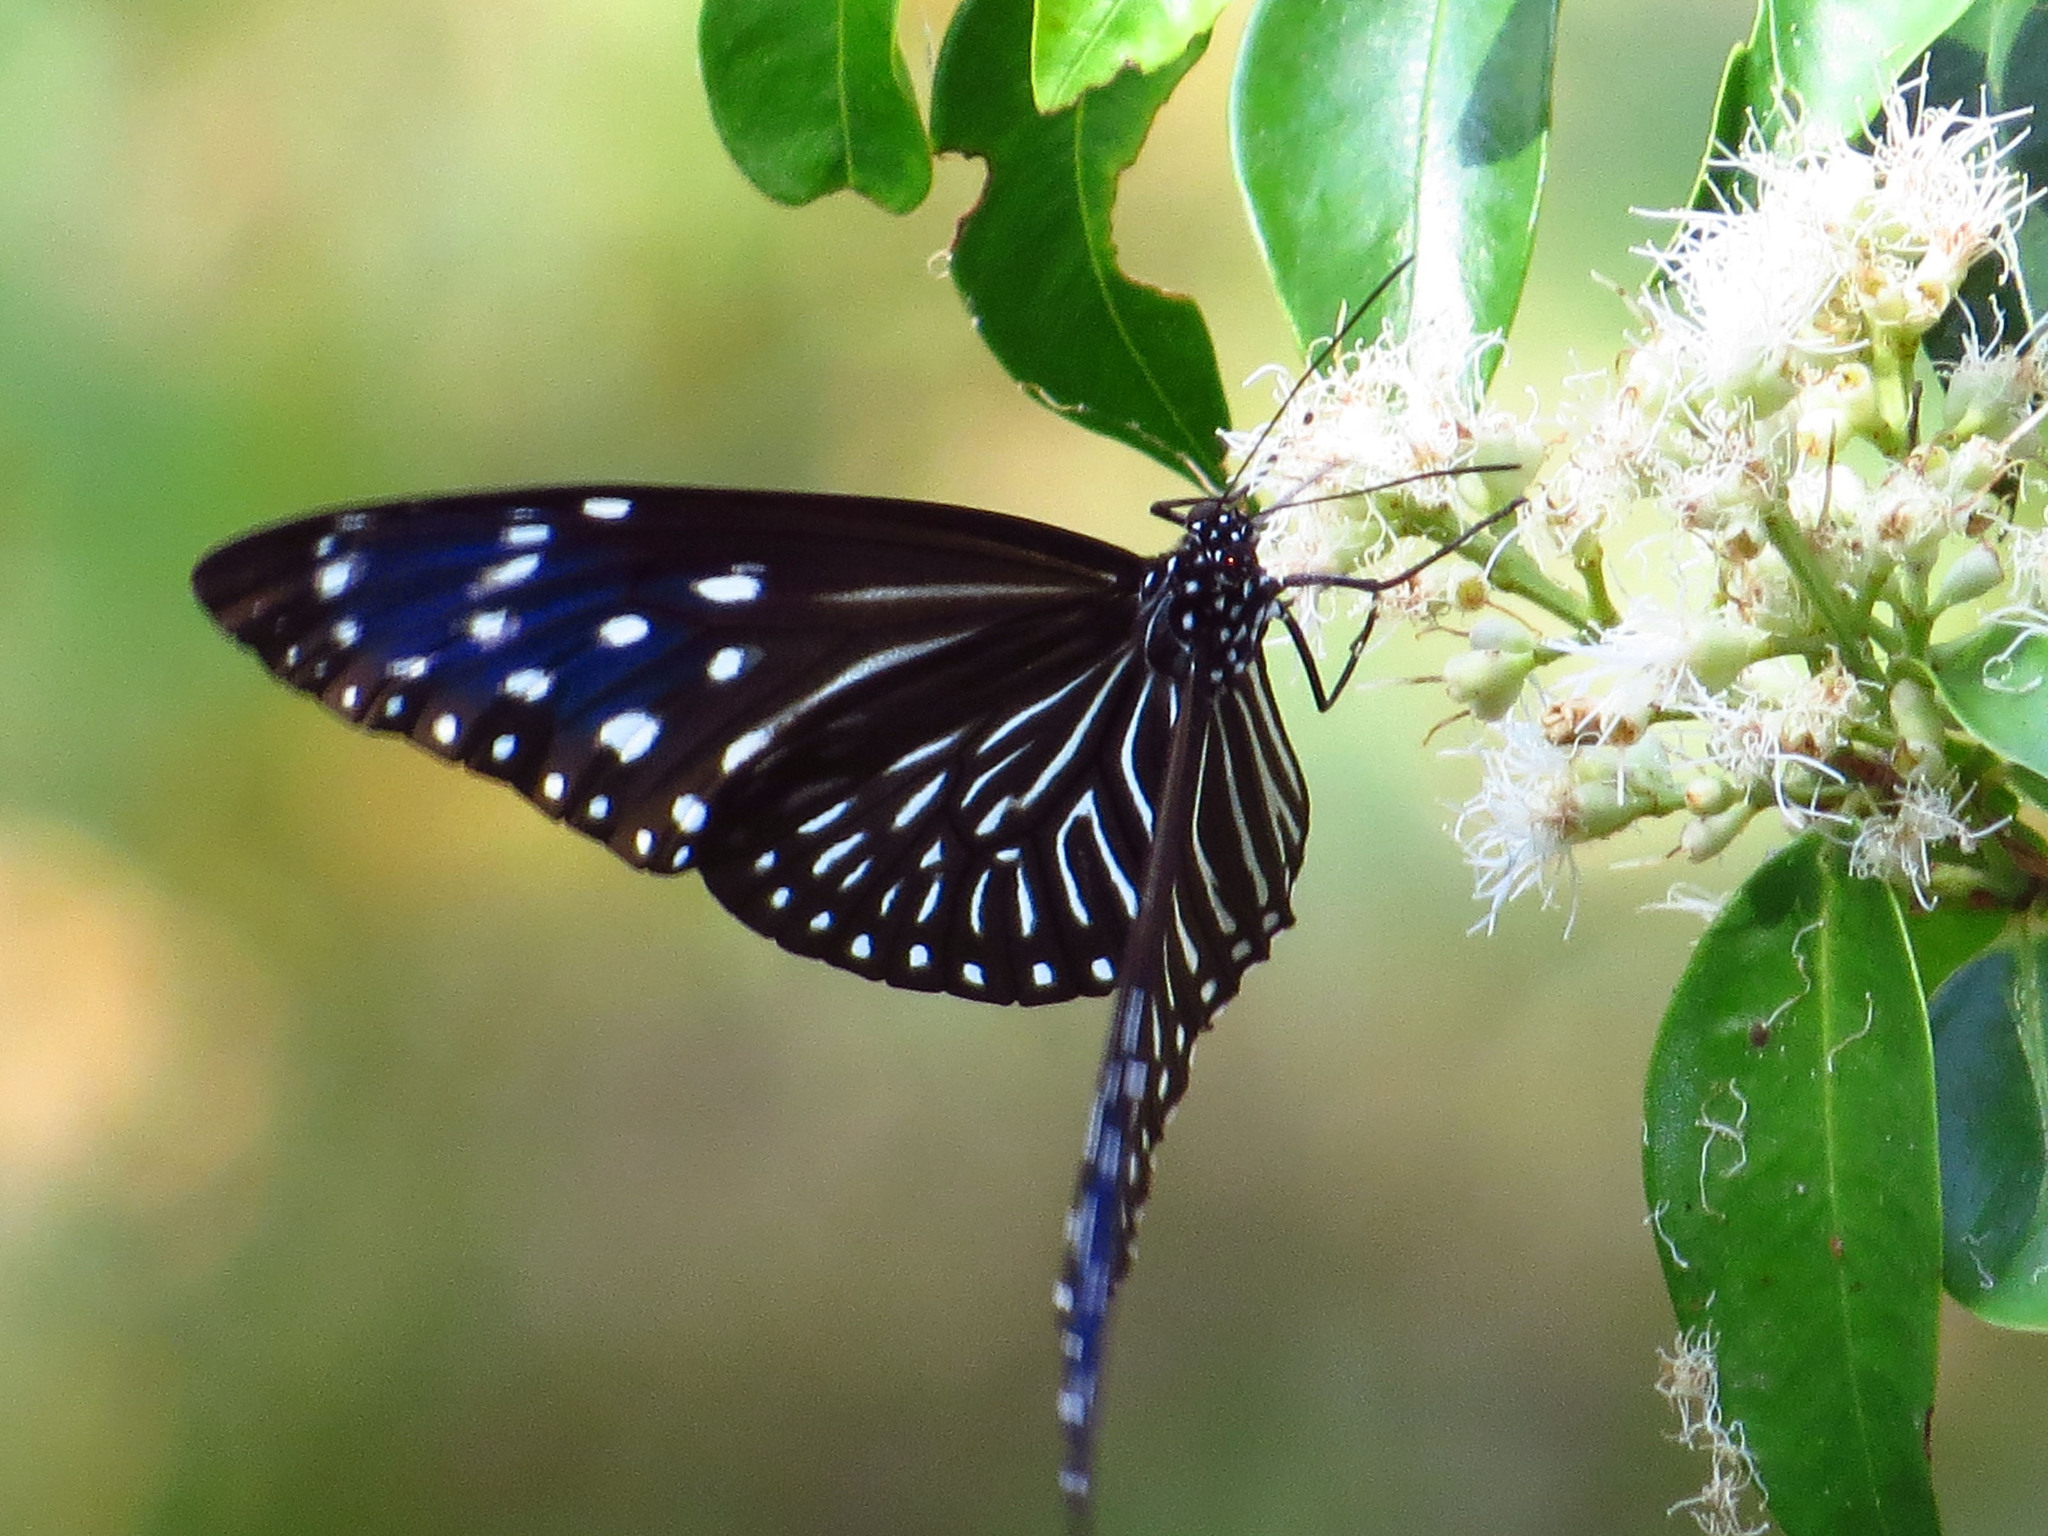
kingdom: Animalia
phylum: Arthropoda
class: Insecta
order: Lepidoptera
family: Nymphalidae
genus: Euploea
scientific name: Euploea mulciber
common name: Striped blue crow butterfly
